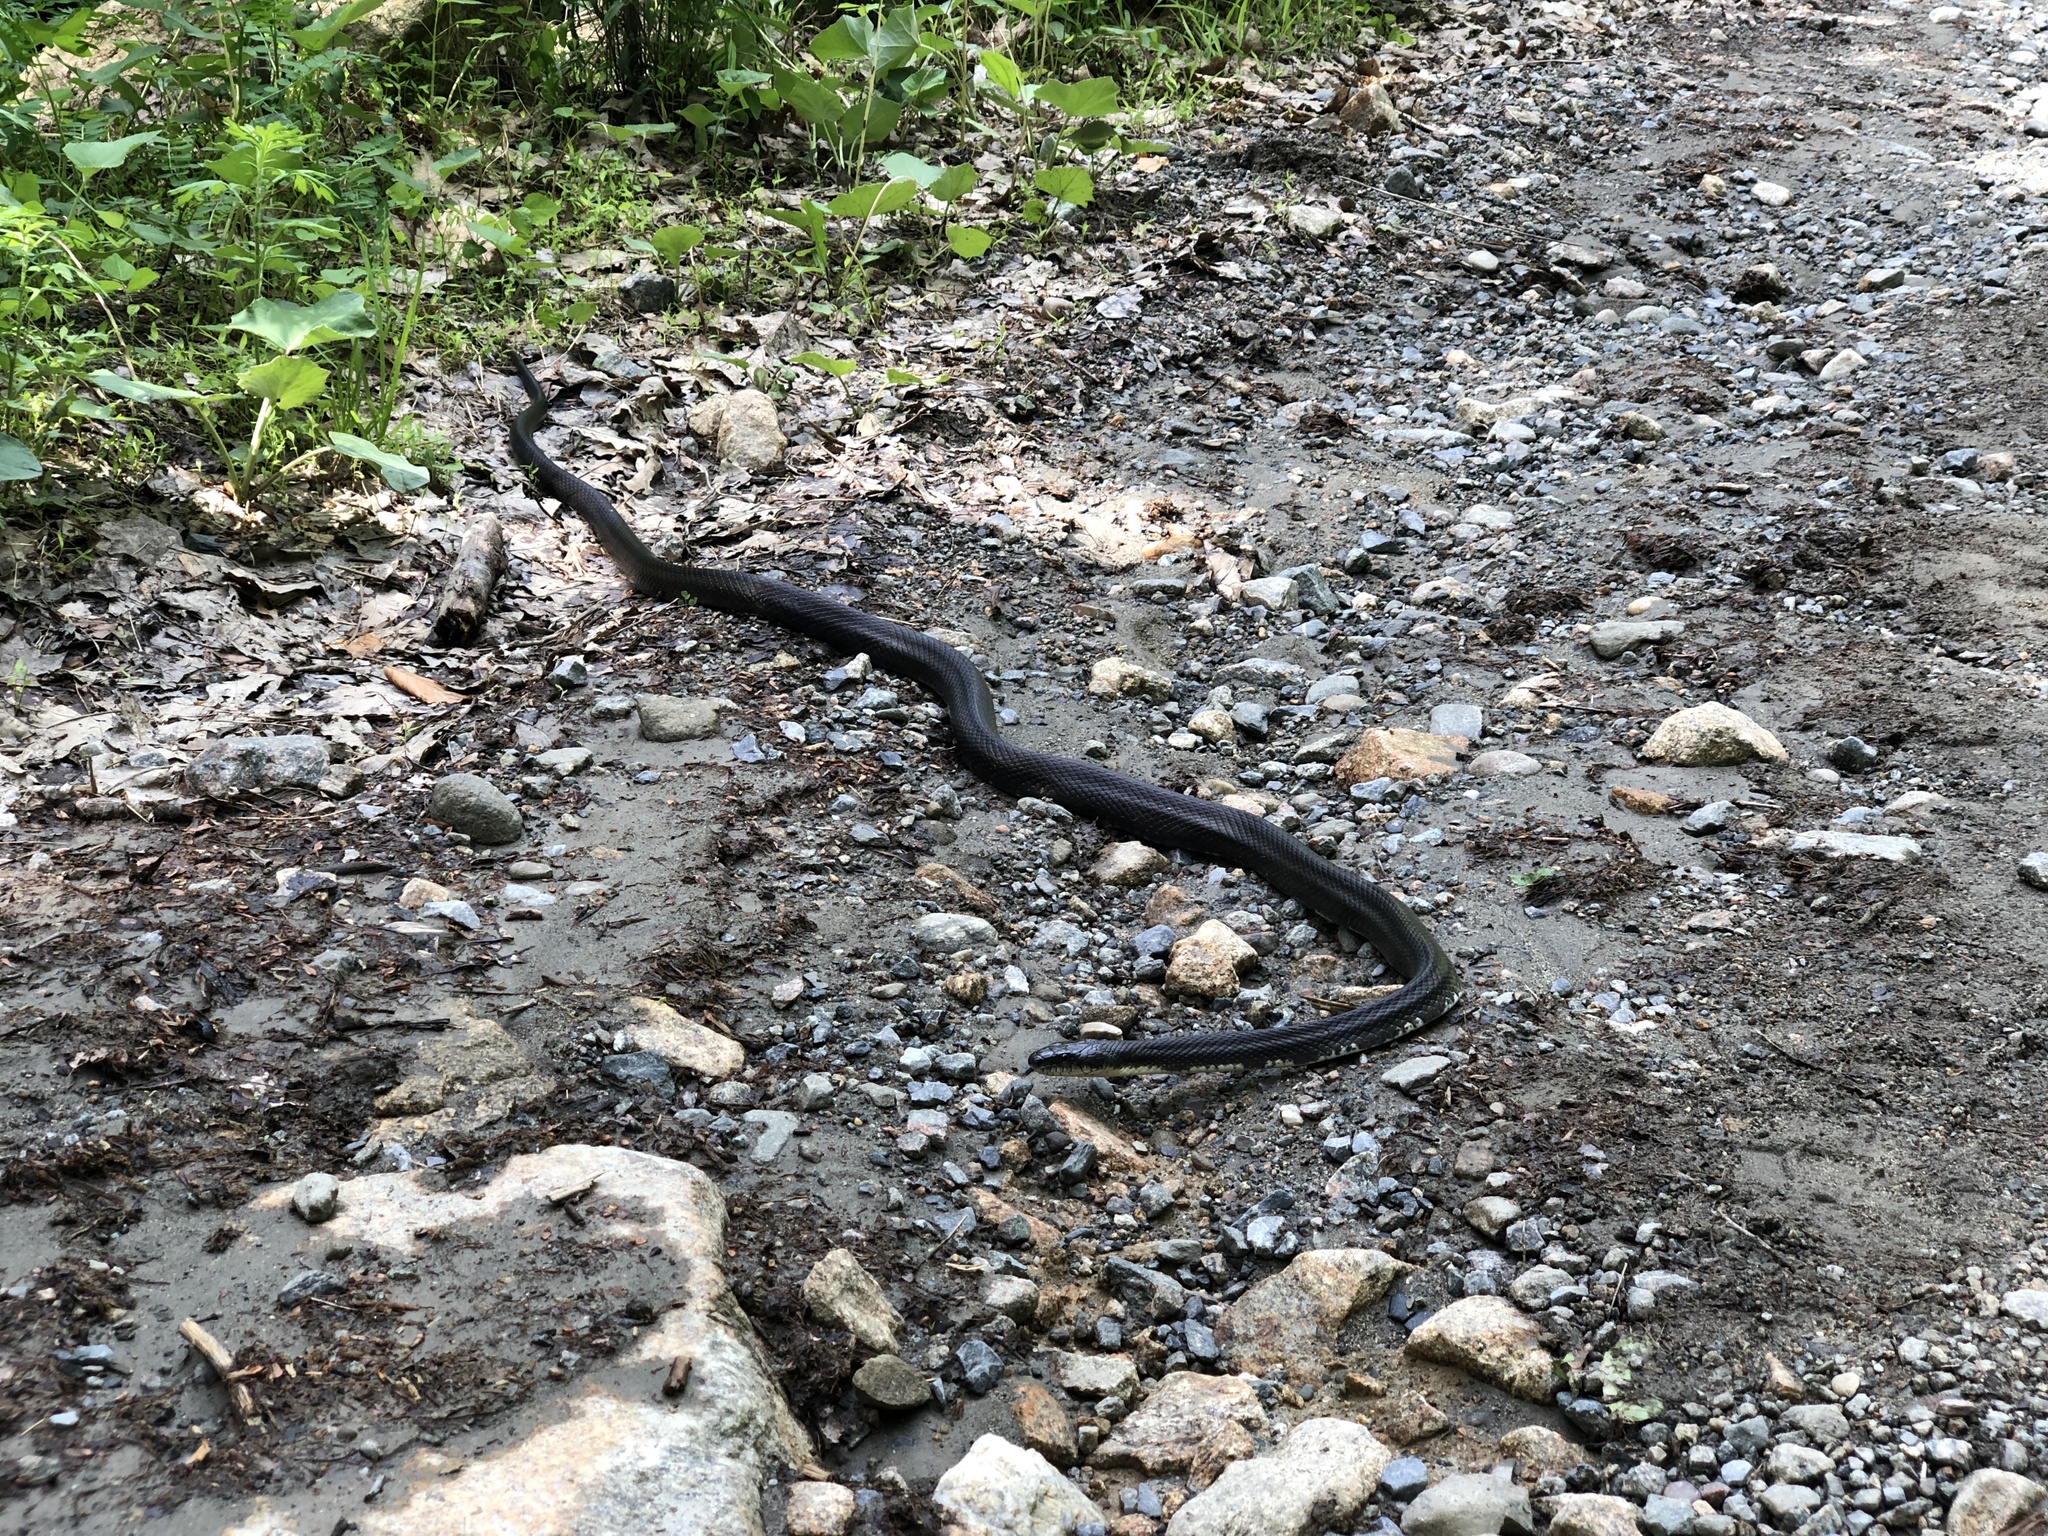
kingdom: Animalia
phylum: Chordata
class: Squamata
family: Colubridae
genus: Pantherophis
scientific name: Pantherophis alleghaniensis
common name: Eastern rat snake
